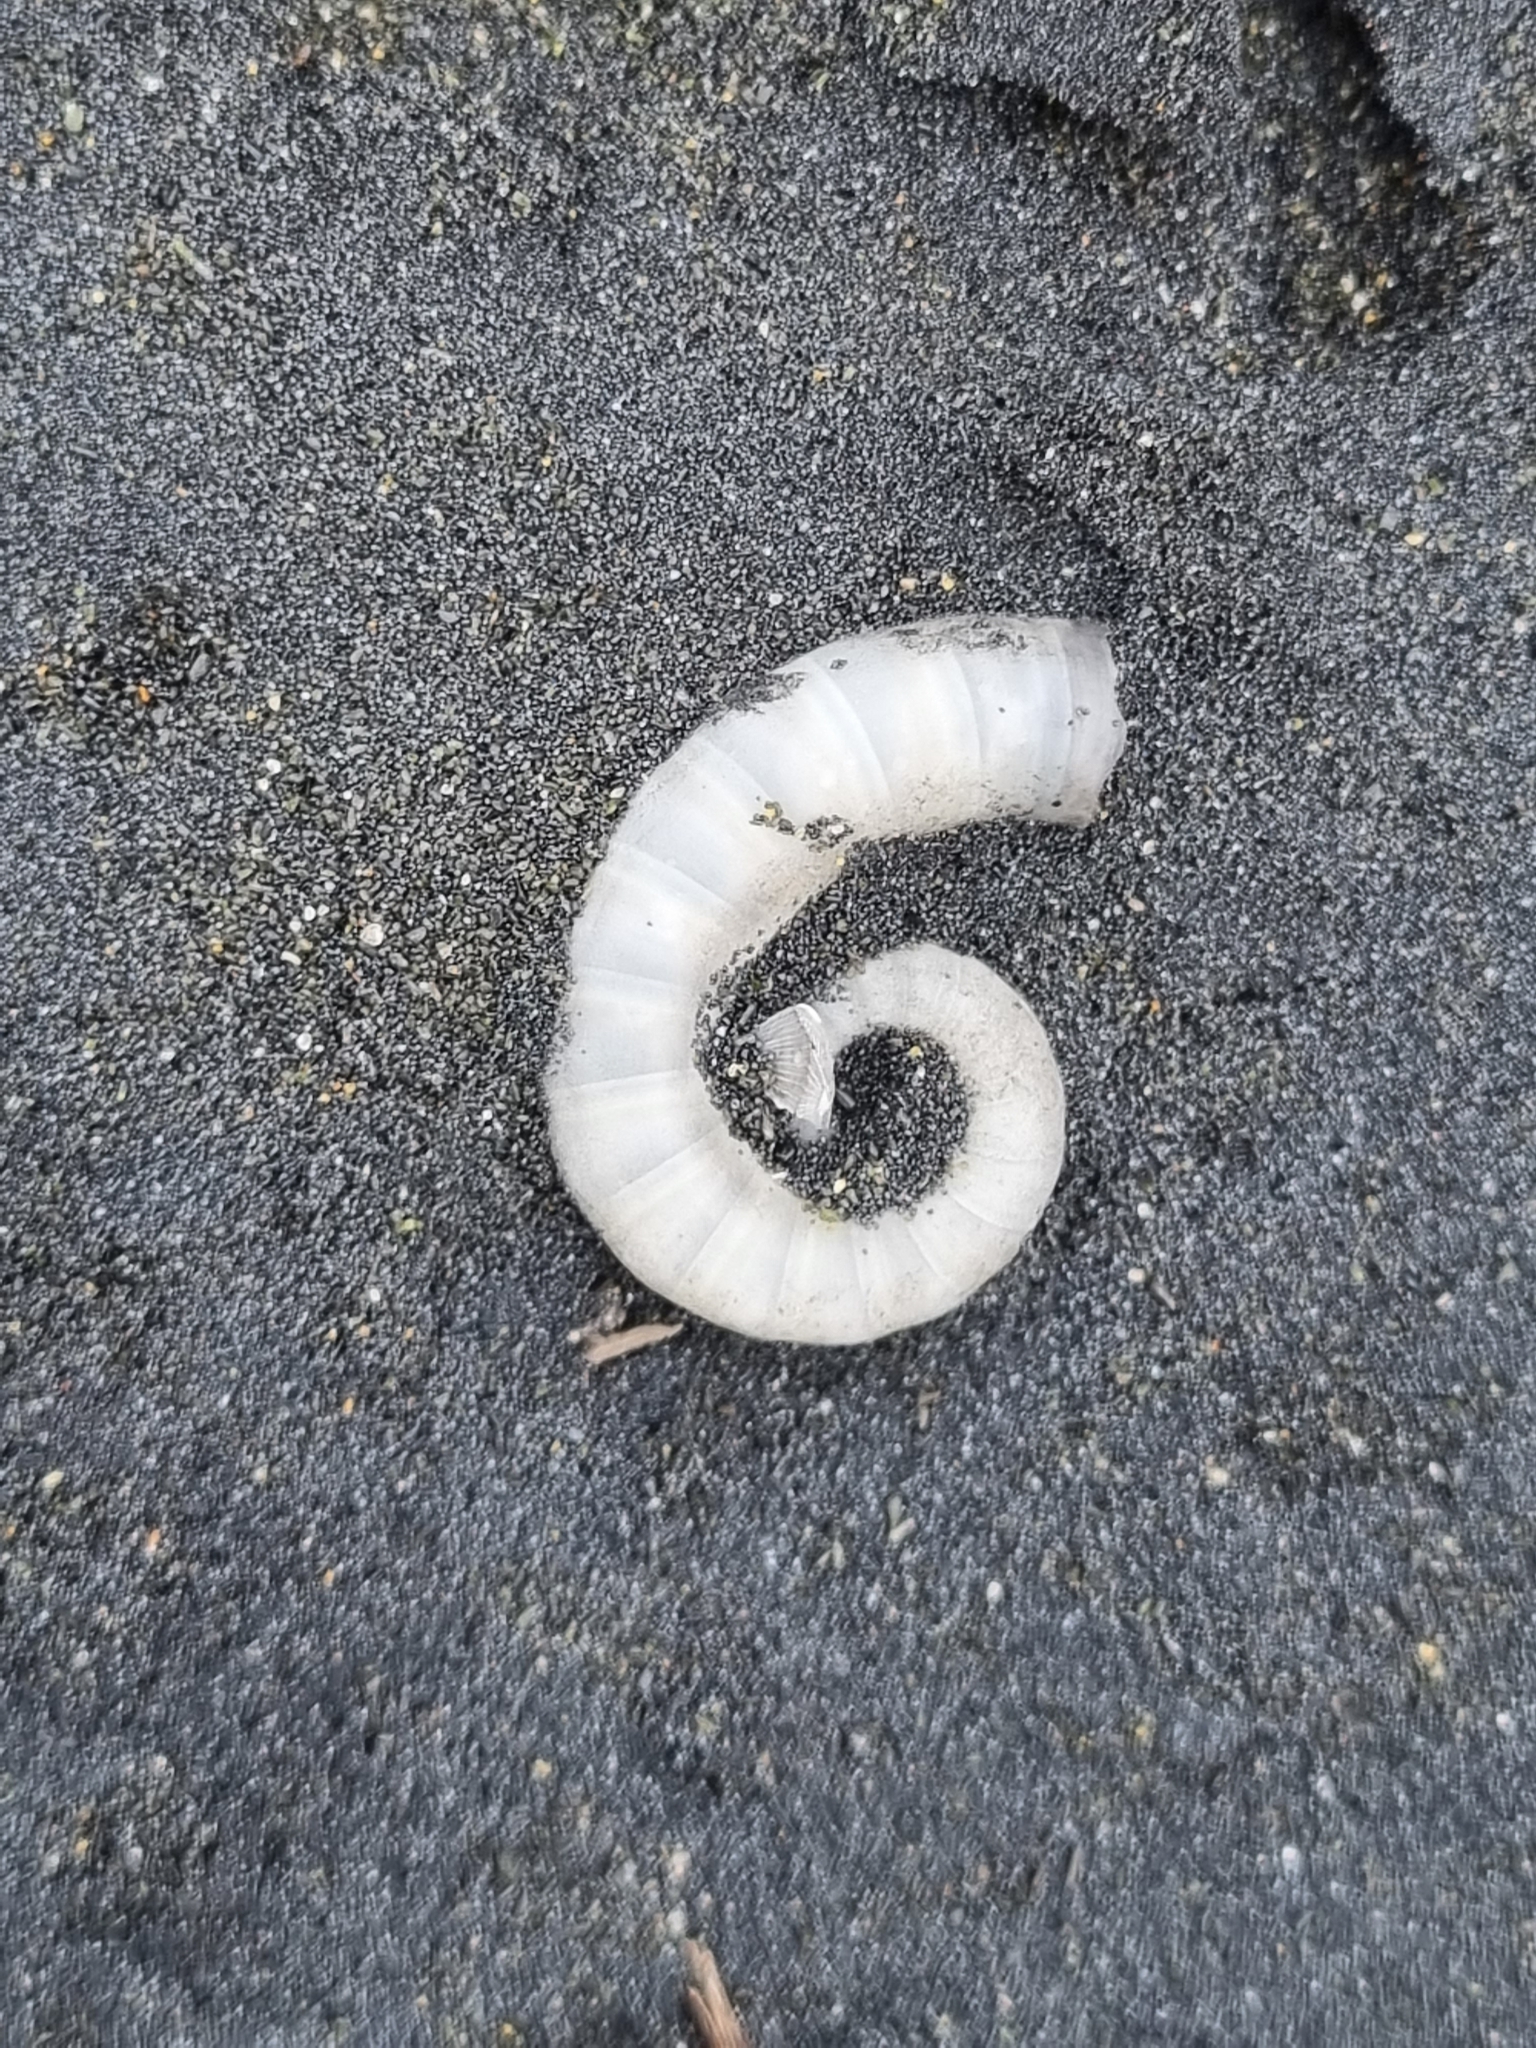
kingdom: Animalia
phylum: Mollusca
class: Cephalopoda
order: Spirulida
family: Spirulidae
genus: Spirula
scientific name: Spirula spirula
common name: Ram's horn squid
